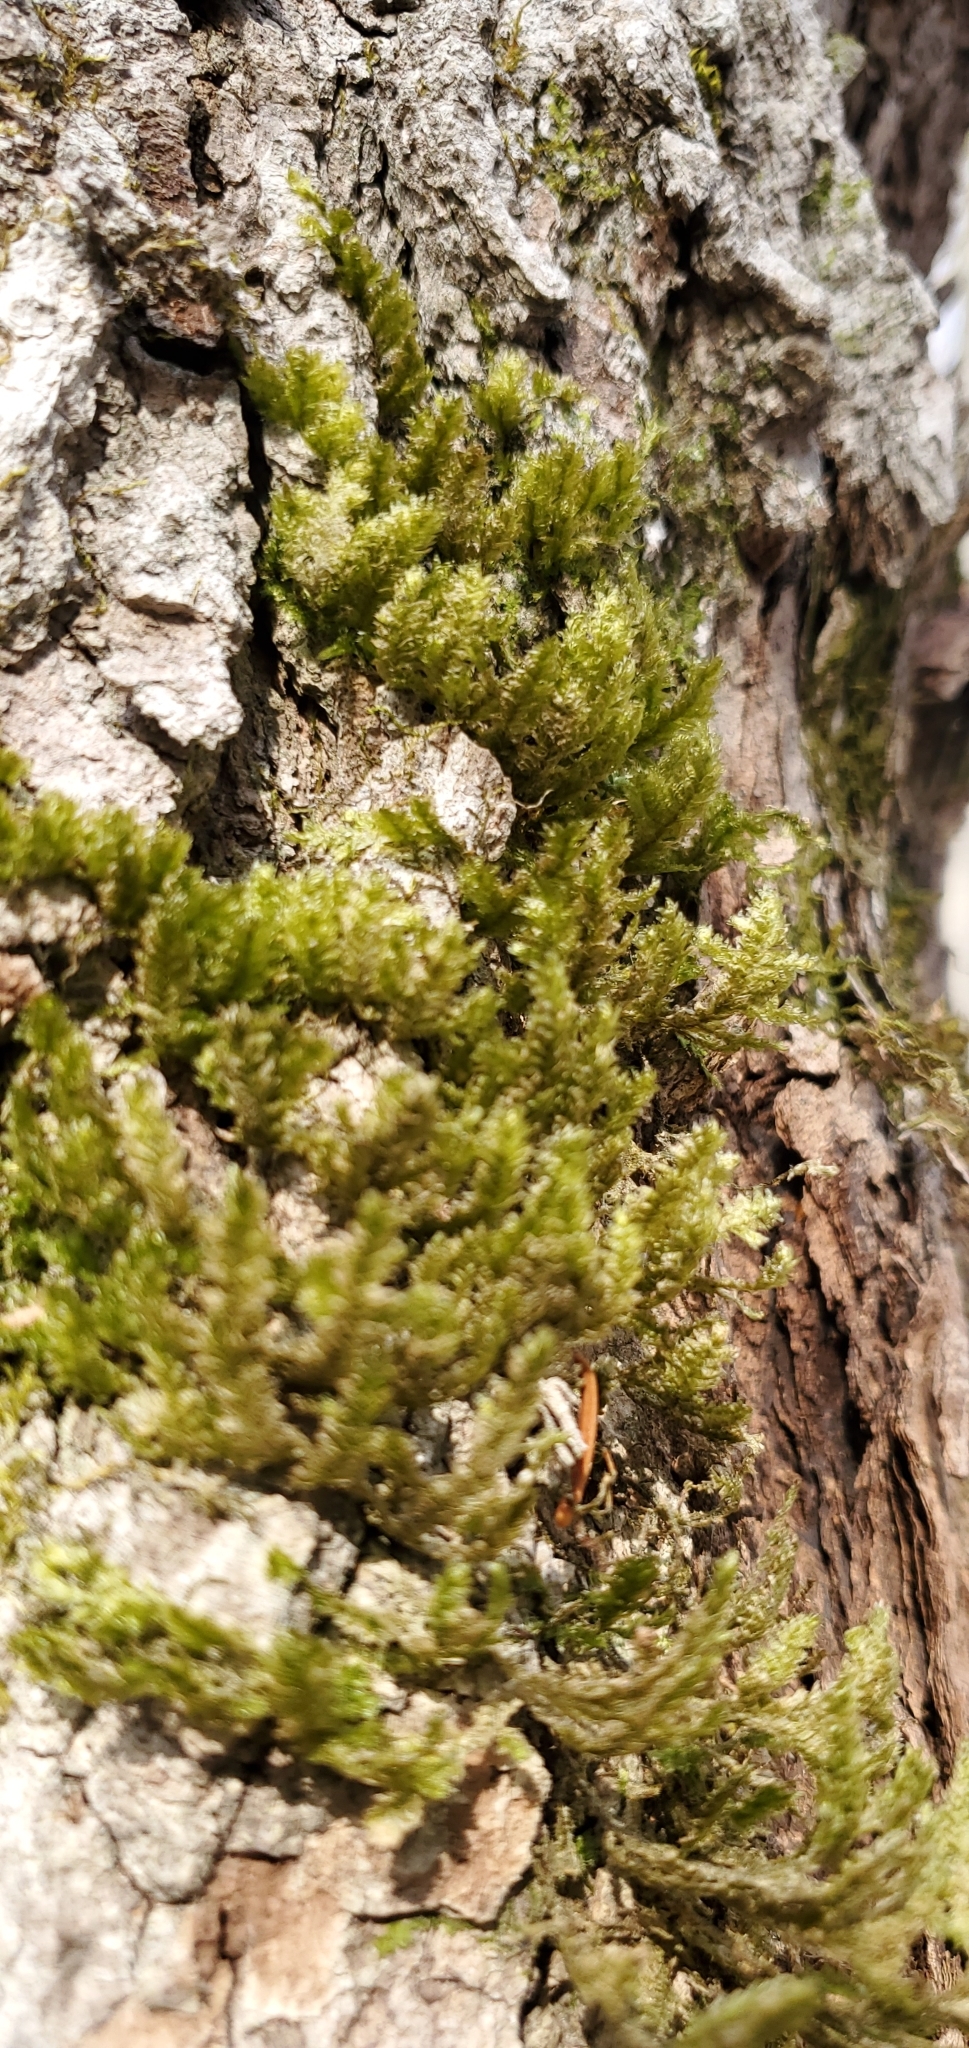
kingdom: Plantae
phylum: Bryophyta
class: Bryopsida
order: Hypnales
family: Neckeraceae
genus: Neckera
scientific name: Neckera pennata
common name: Feathery neckera
